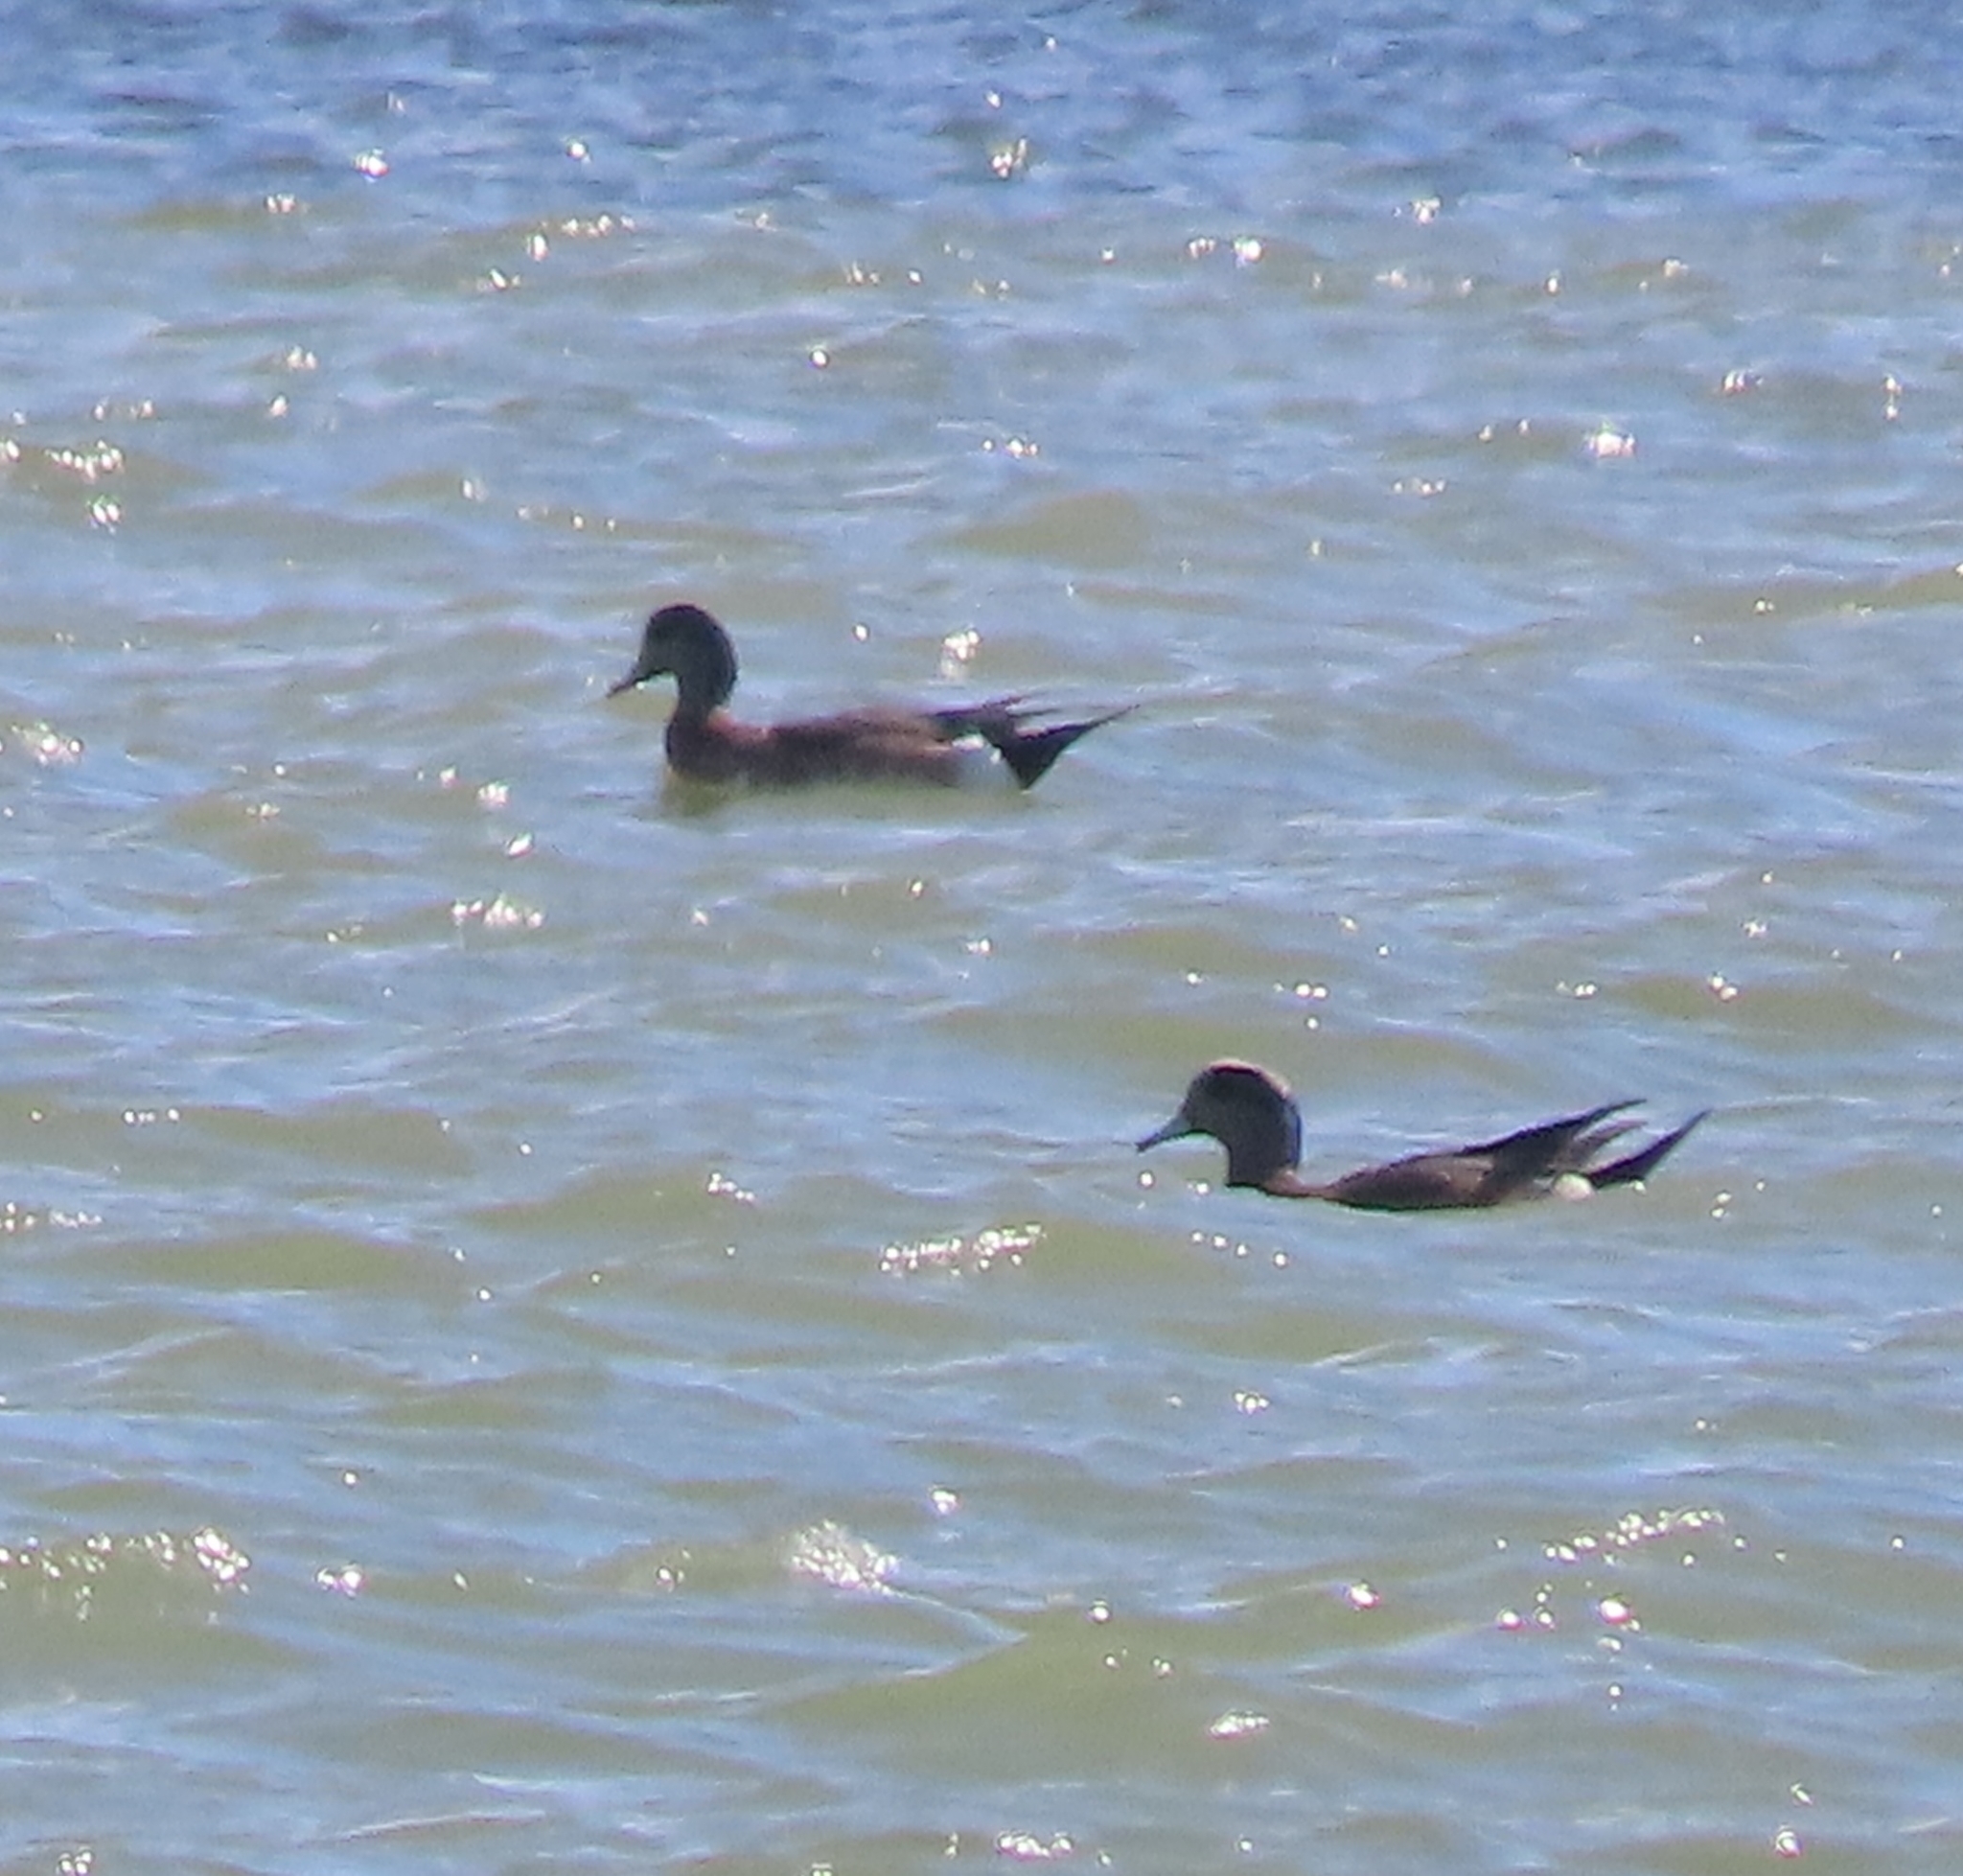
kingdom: Animalia
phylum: Chordata
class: Aves
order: Anseriformes
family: Anatidae
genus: Mareca
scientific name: Mareca americana
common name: American wigeon
